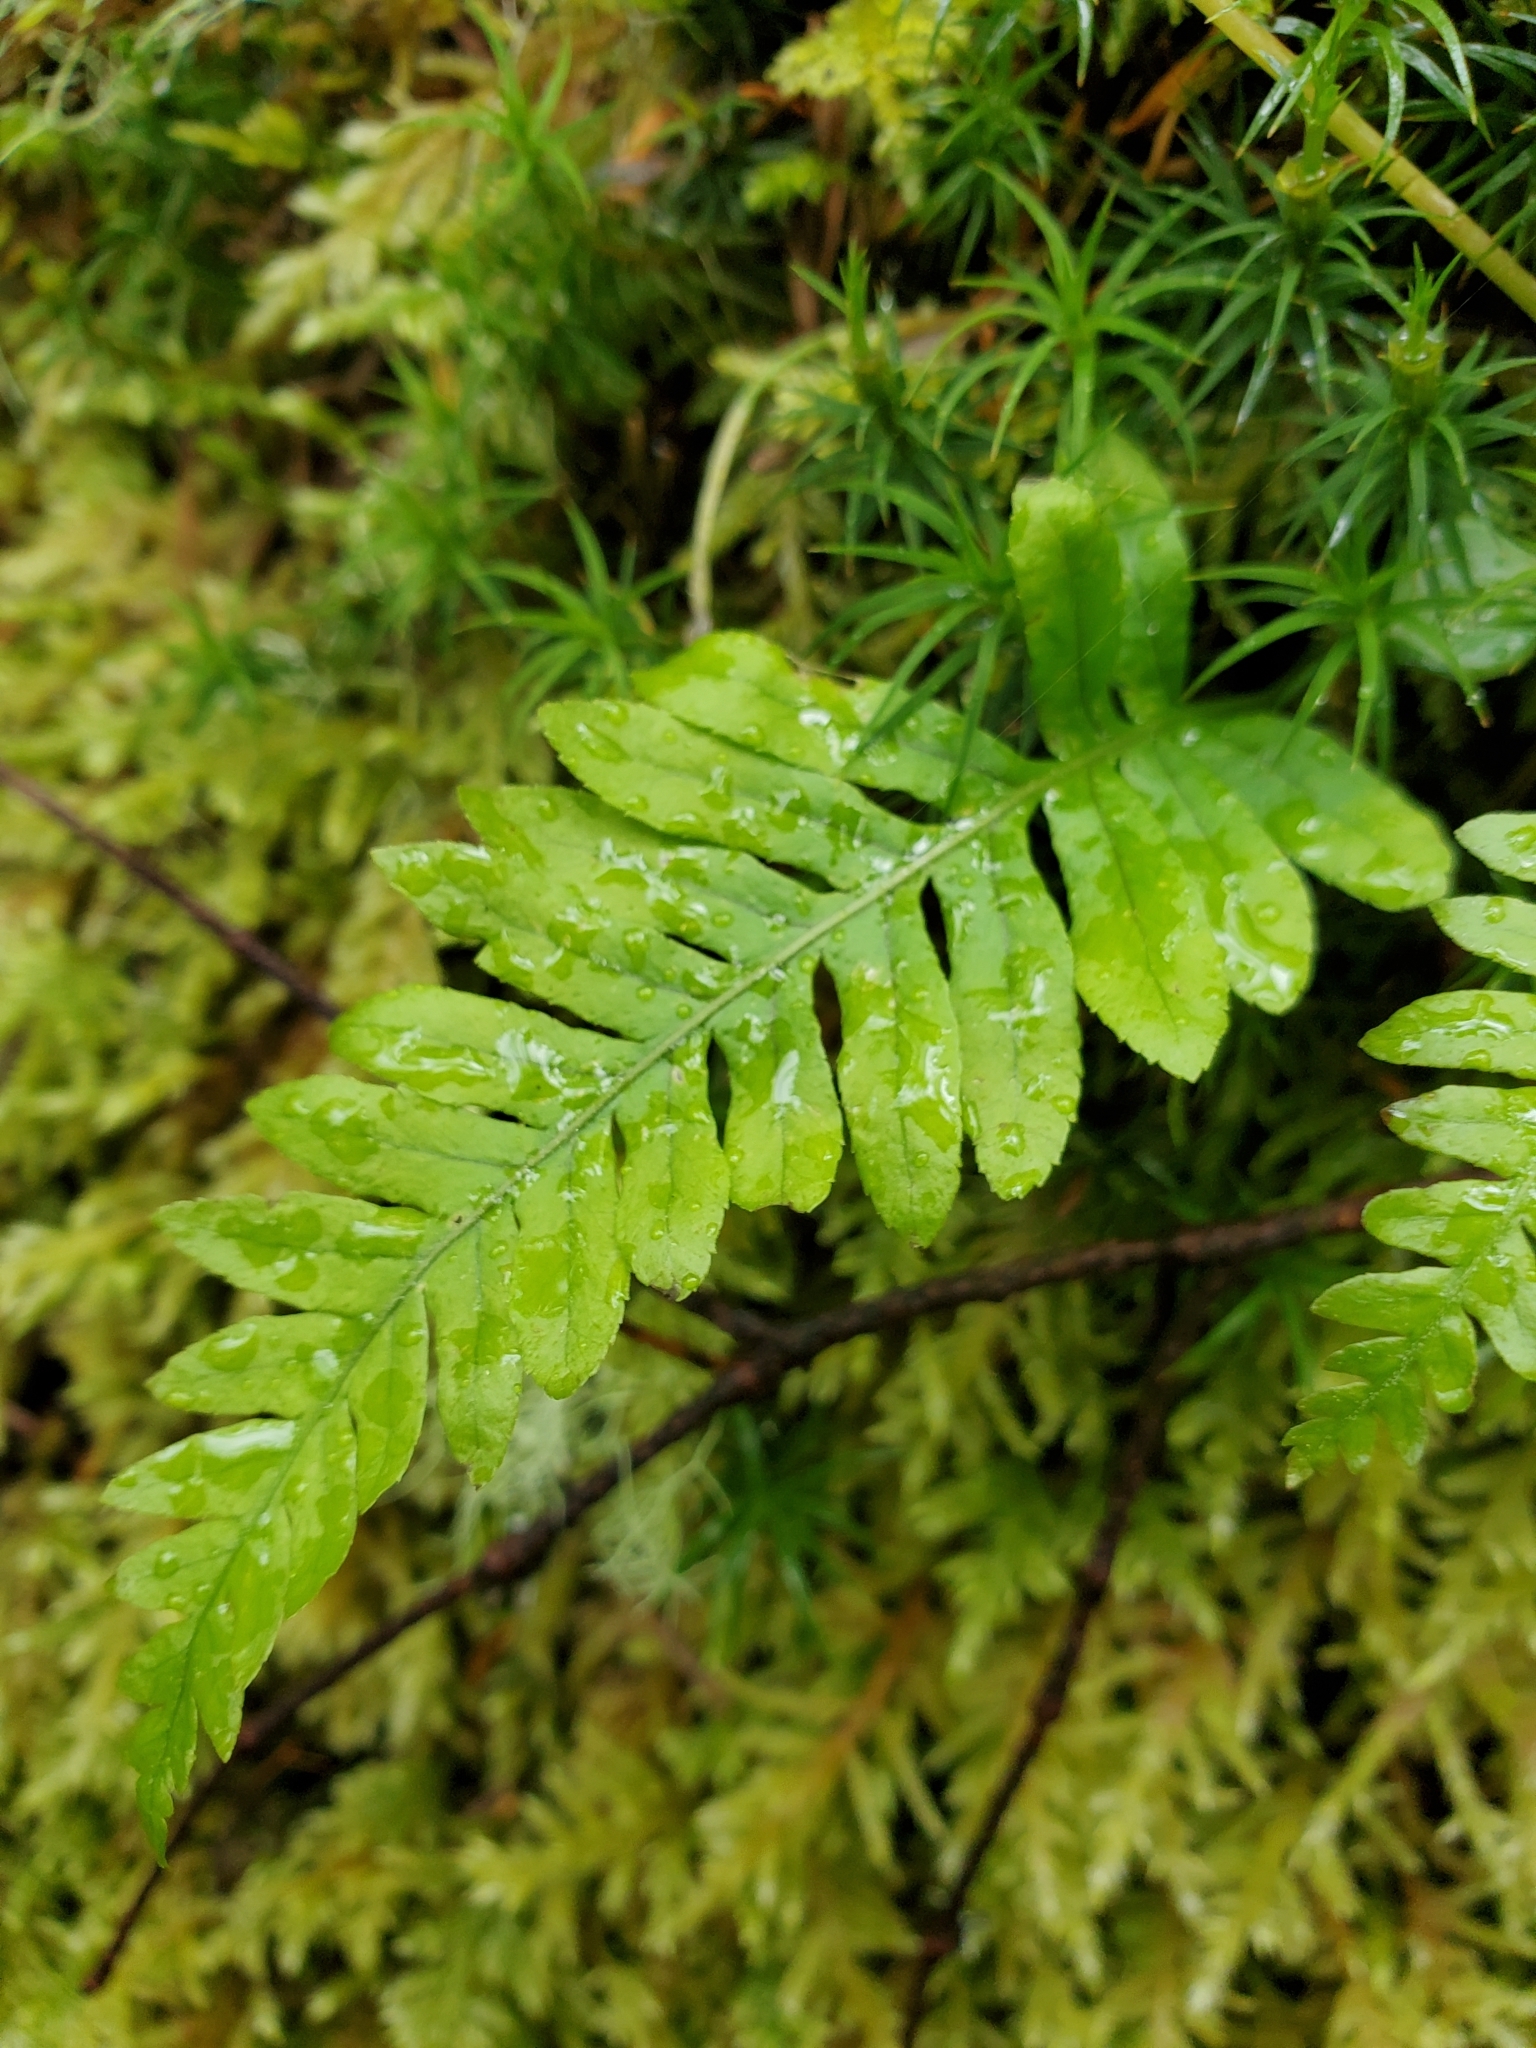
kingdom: Plantae
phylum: Tracheophyta
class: Polypodiopsida
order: Polypodiales
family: Polypodiaceae
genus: Polypodium
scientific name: Polypodium glycyrrhiza
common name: Licorice fern
